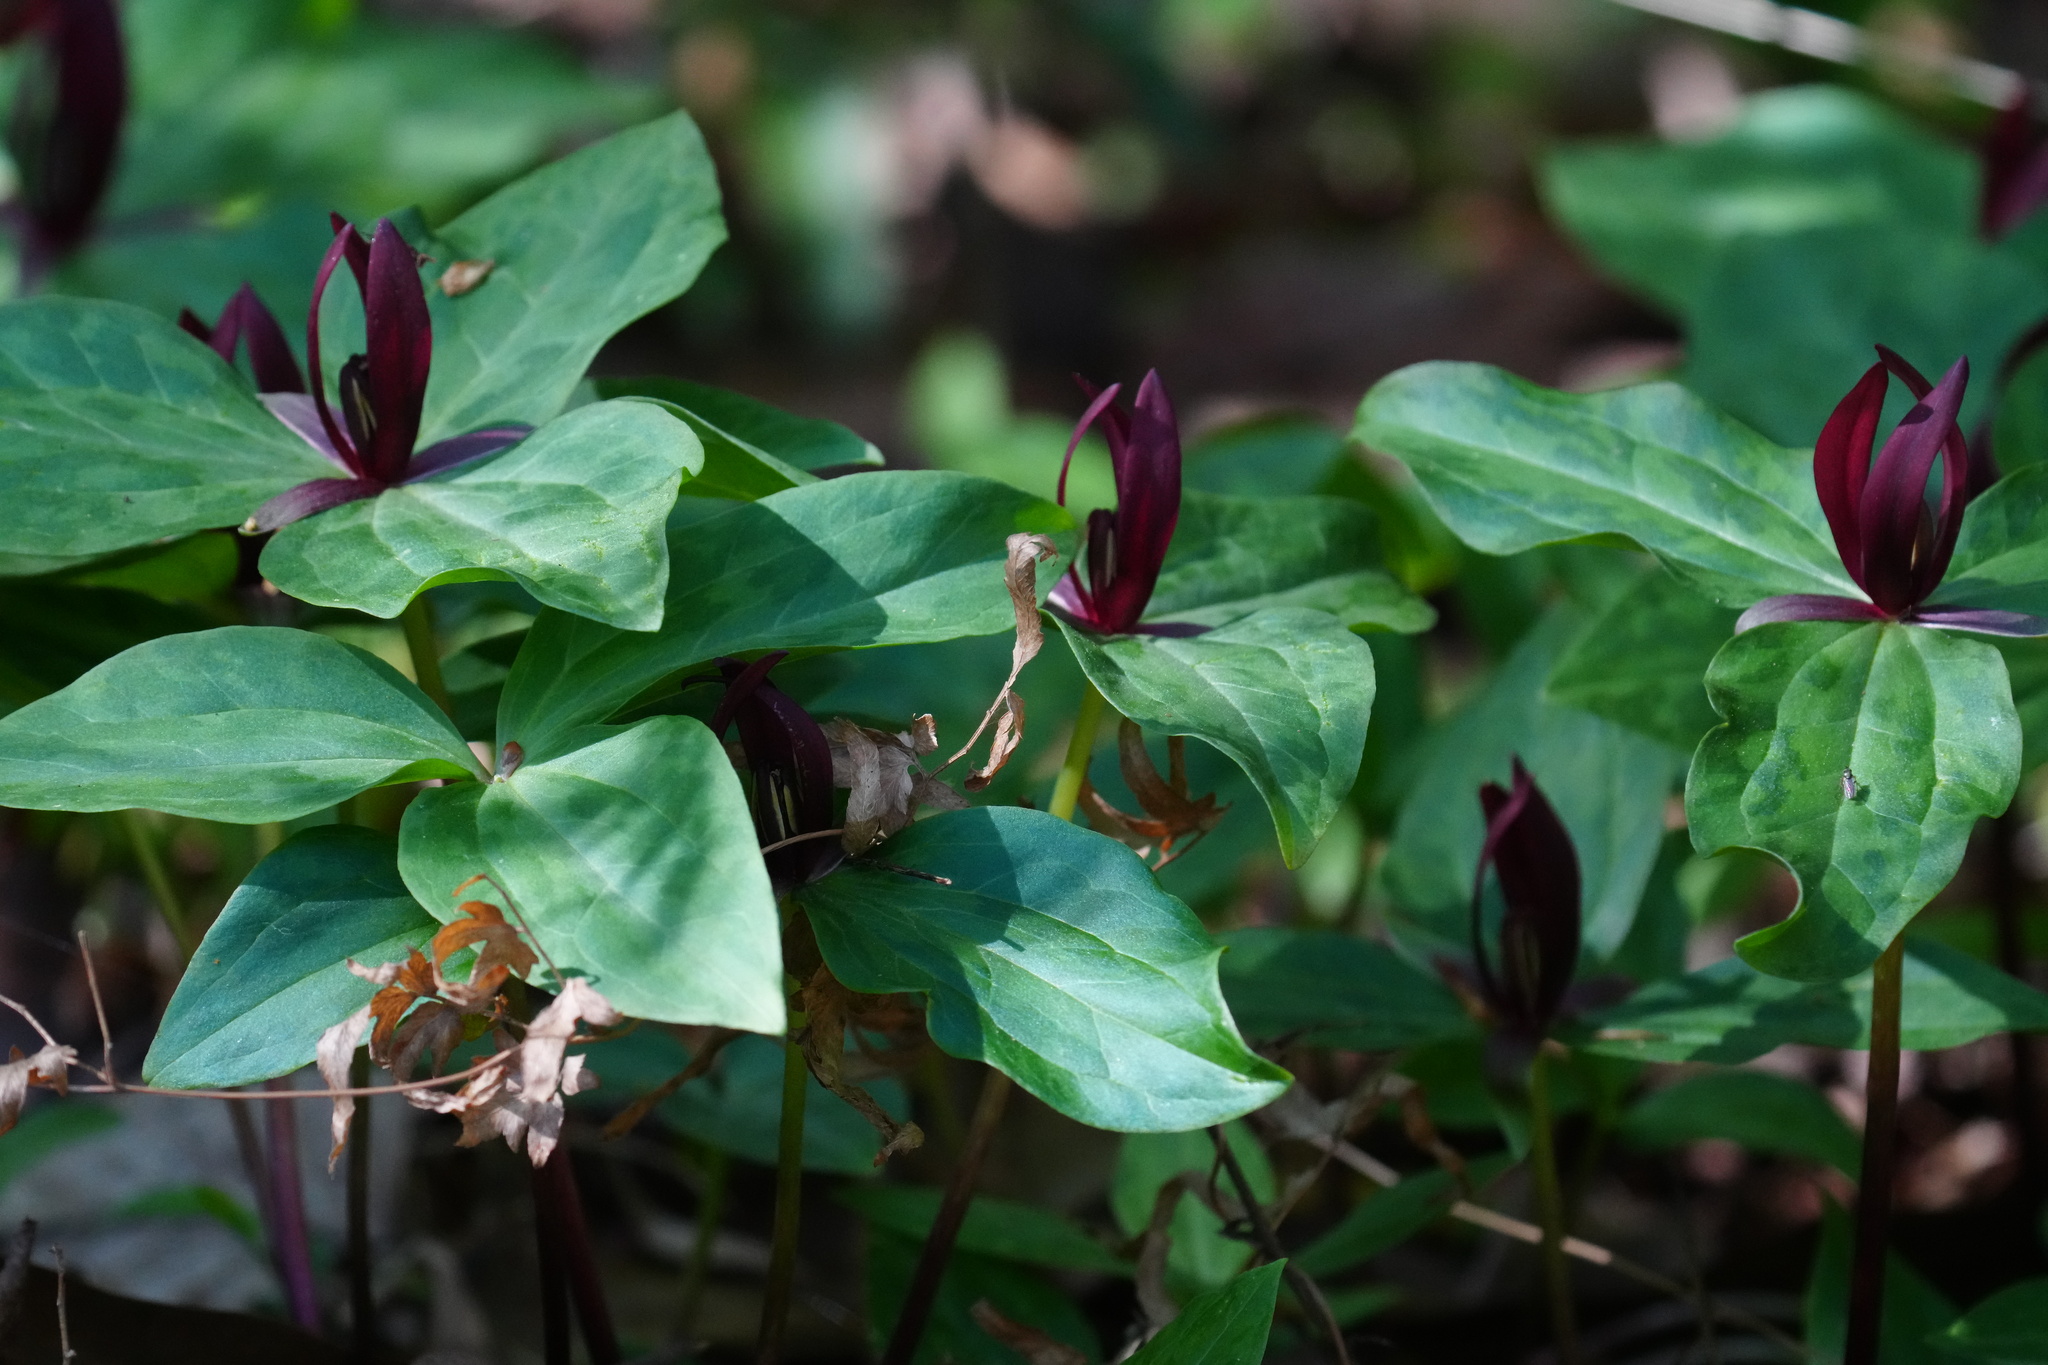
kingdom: Plantae
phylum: Tracheophyta
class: Liliopsida
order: Liliales
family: Melanthiaceae
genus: Trillium
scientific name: Trillium foetidissimum
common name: Mississippi river trillium
